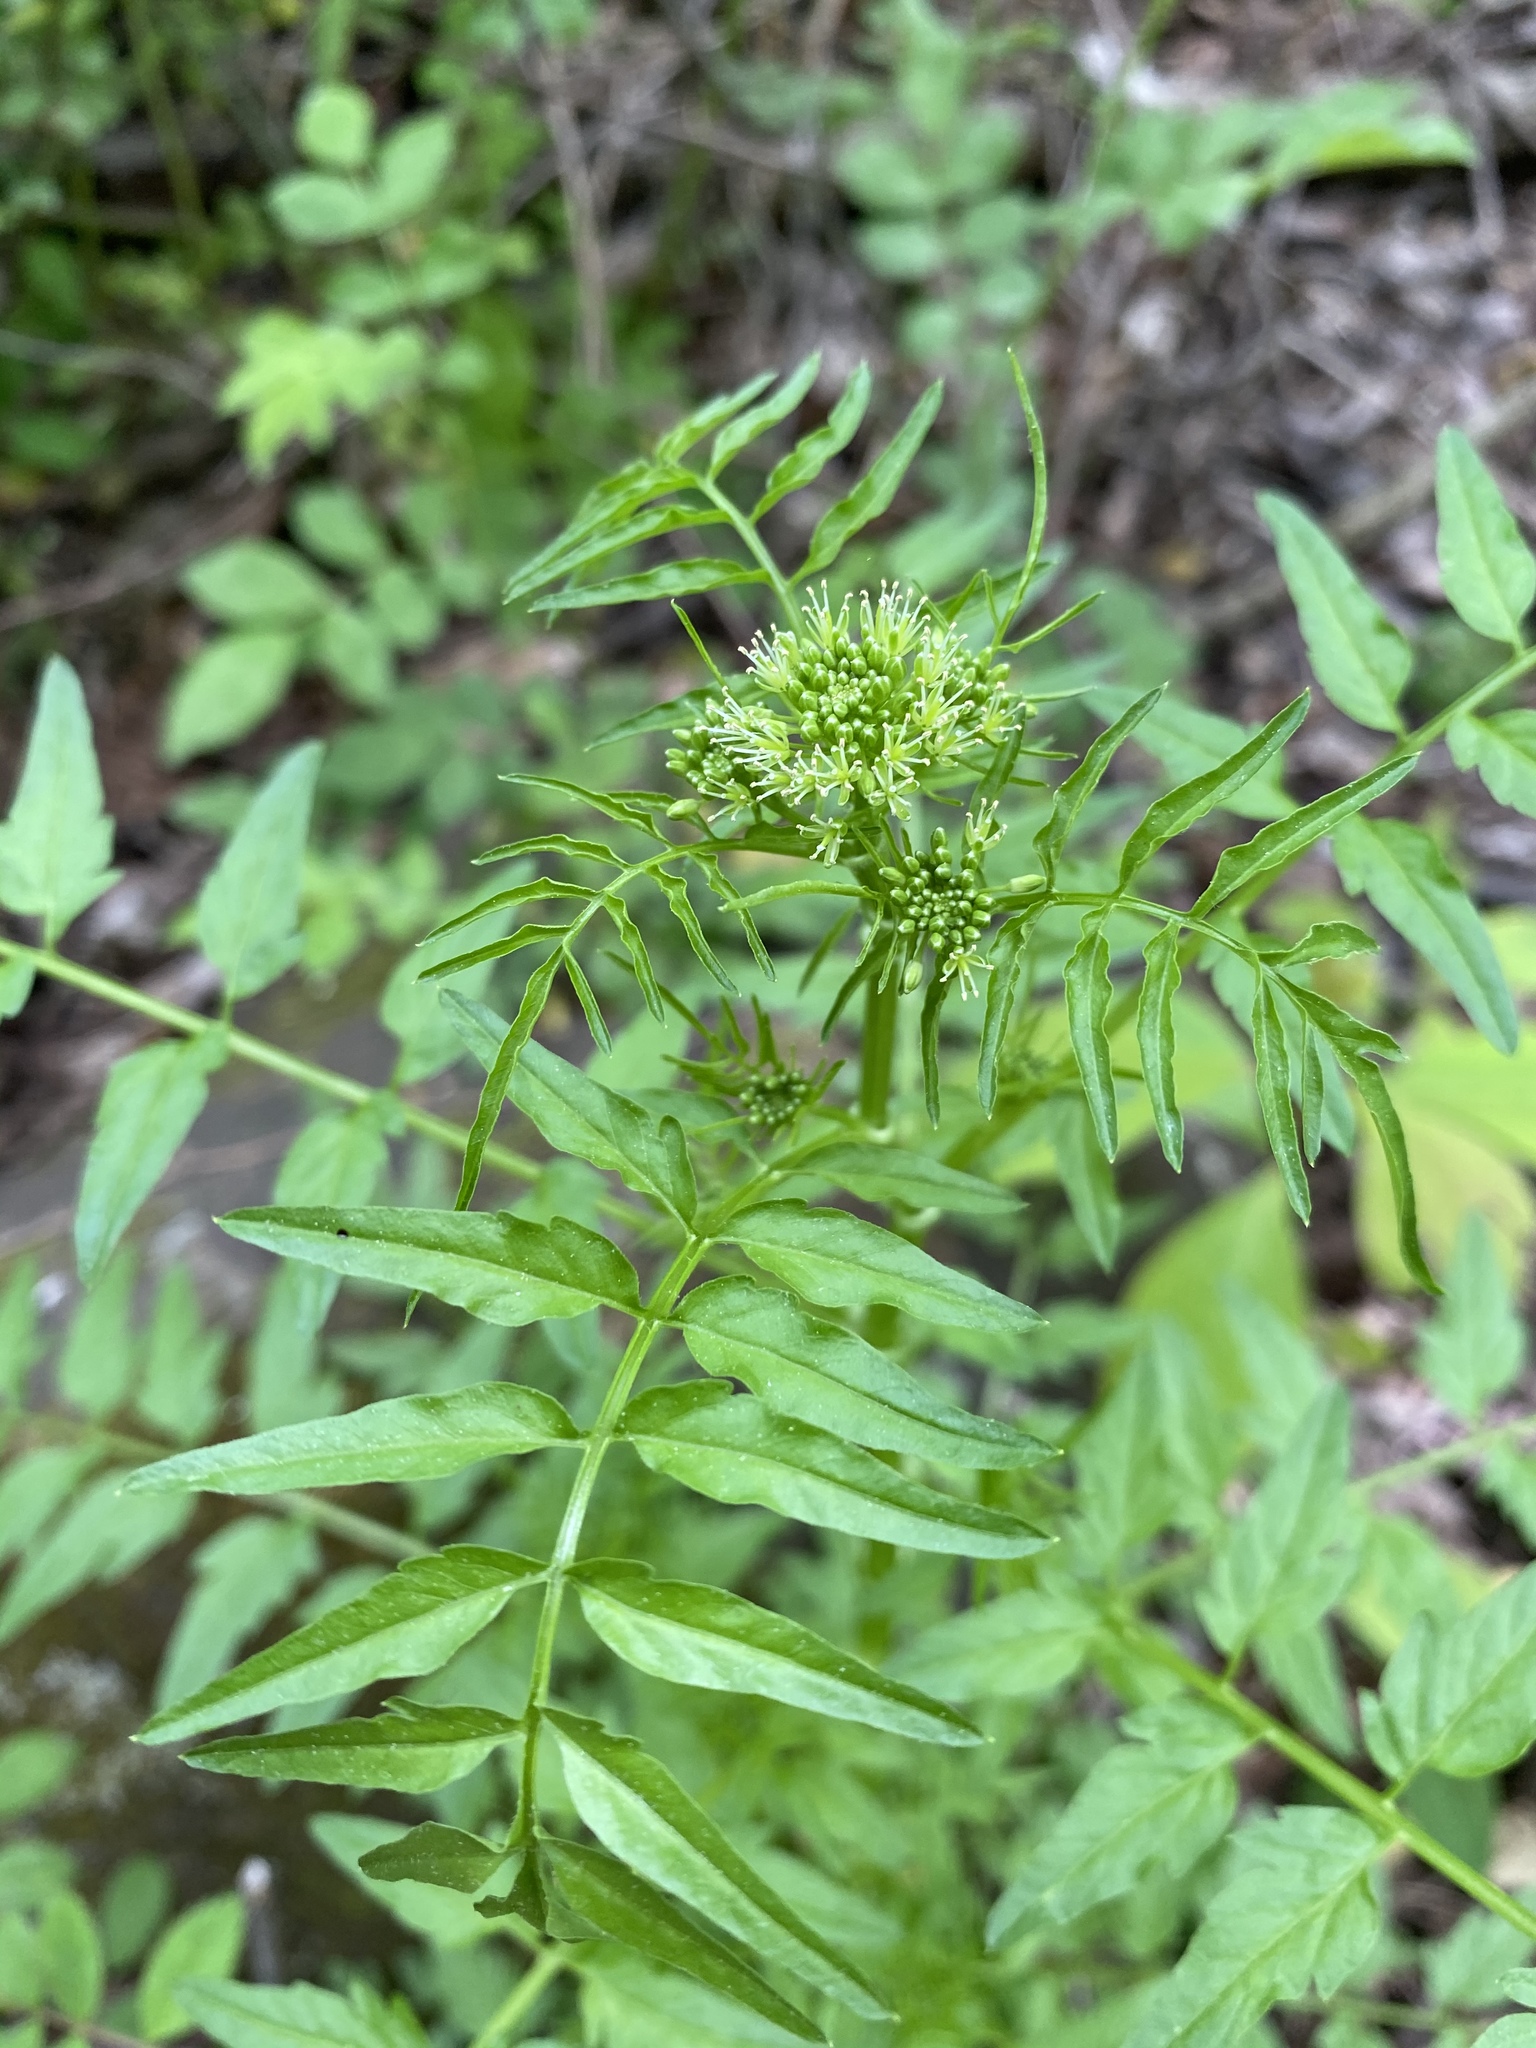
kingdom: Plantae
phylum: Tracheophyta
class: Magnoliopsida
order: Brassicales
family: Brassicaceae
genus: Cardamine
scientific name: Cardamine impatiens
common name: Narrow-leaved bitter-cress
